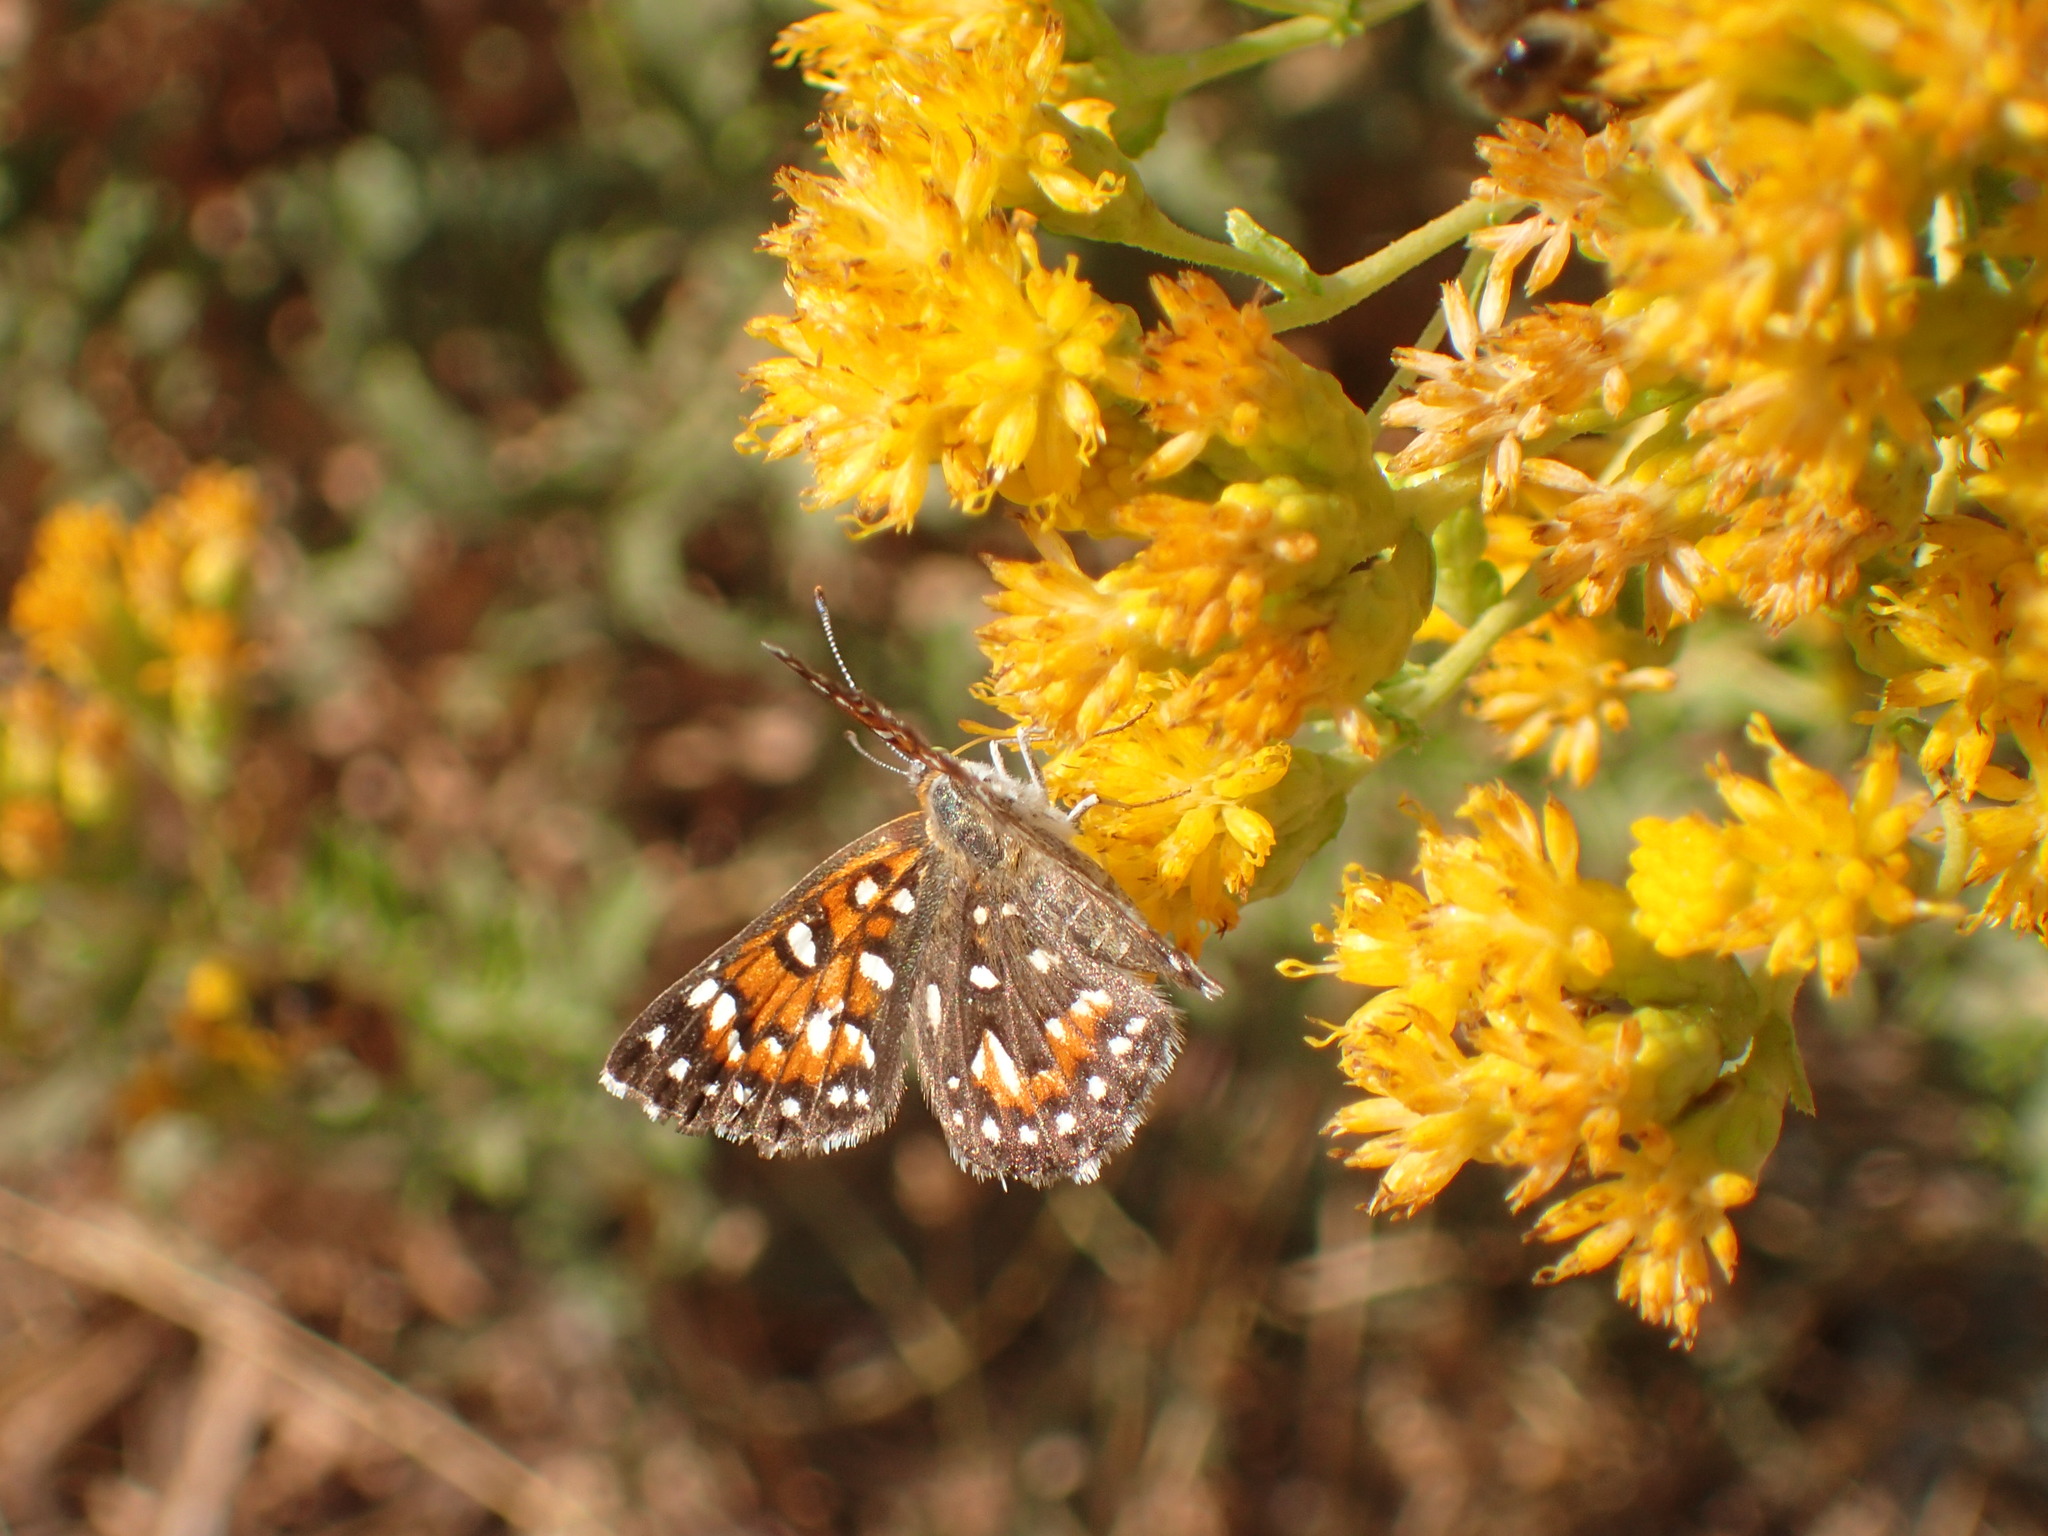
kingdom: Plantae
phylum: Tracheophyta
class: Magnoliopsida
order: Asterales
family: Asteraceae
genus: Isocoma
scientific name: Isocoma menziesii
